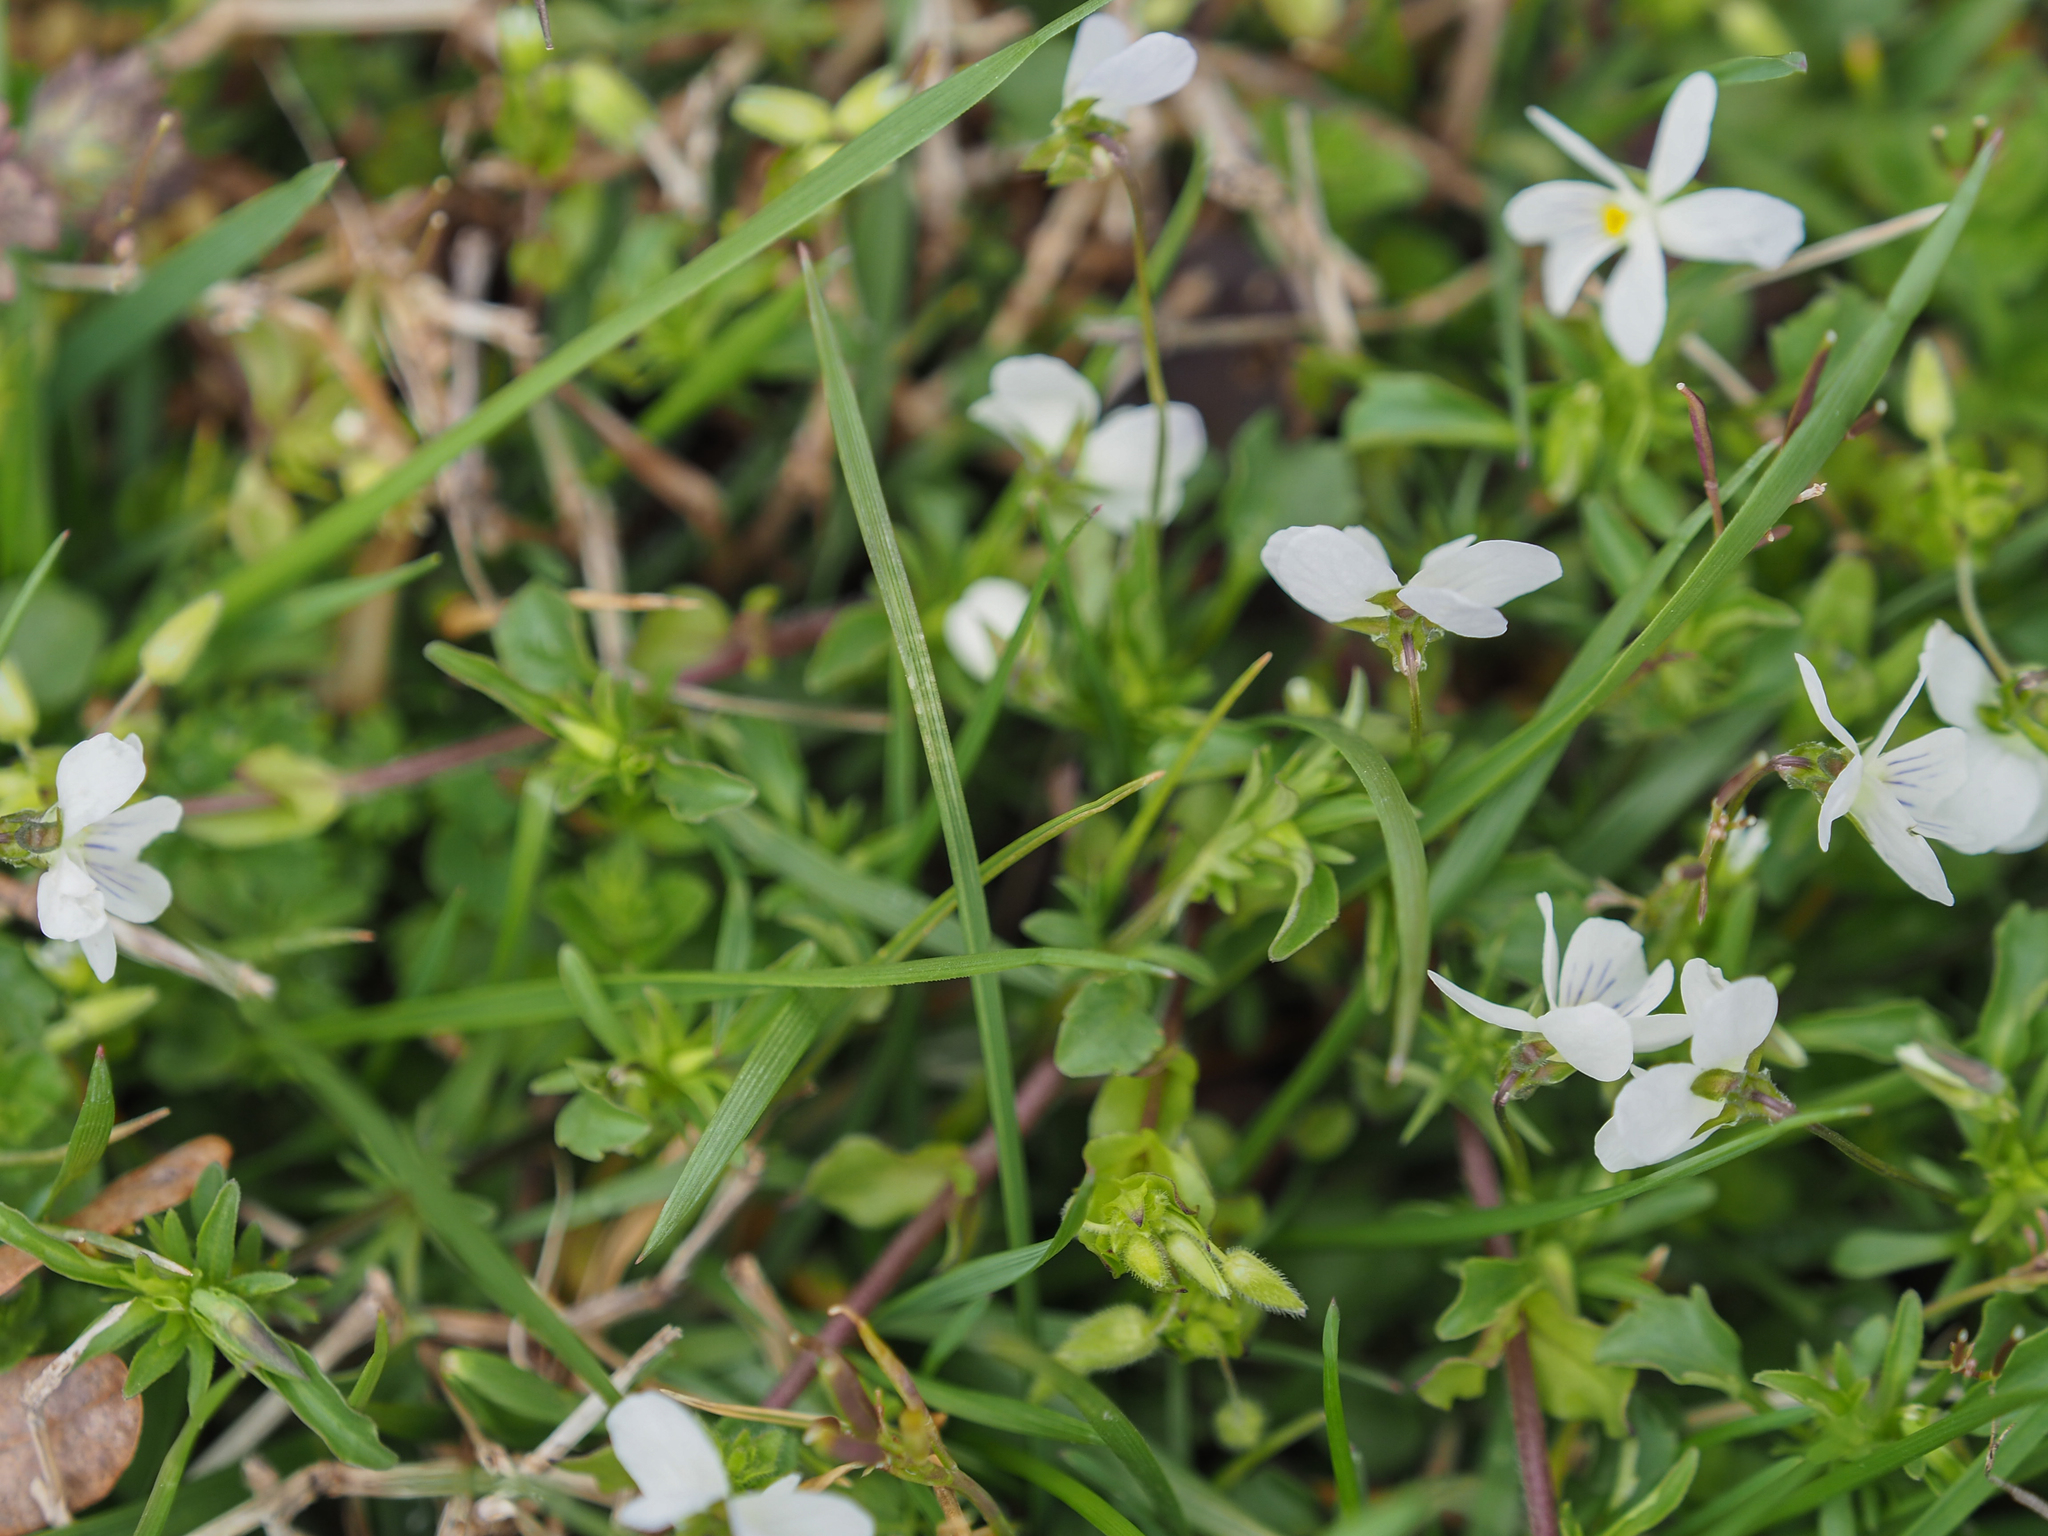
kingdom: Plantae
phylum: Tracheophyta
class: Magnoliopsida
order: Malpighiales
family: Violaceae
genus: Viola
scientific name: Viola rafinesquei
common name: American field pansy
